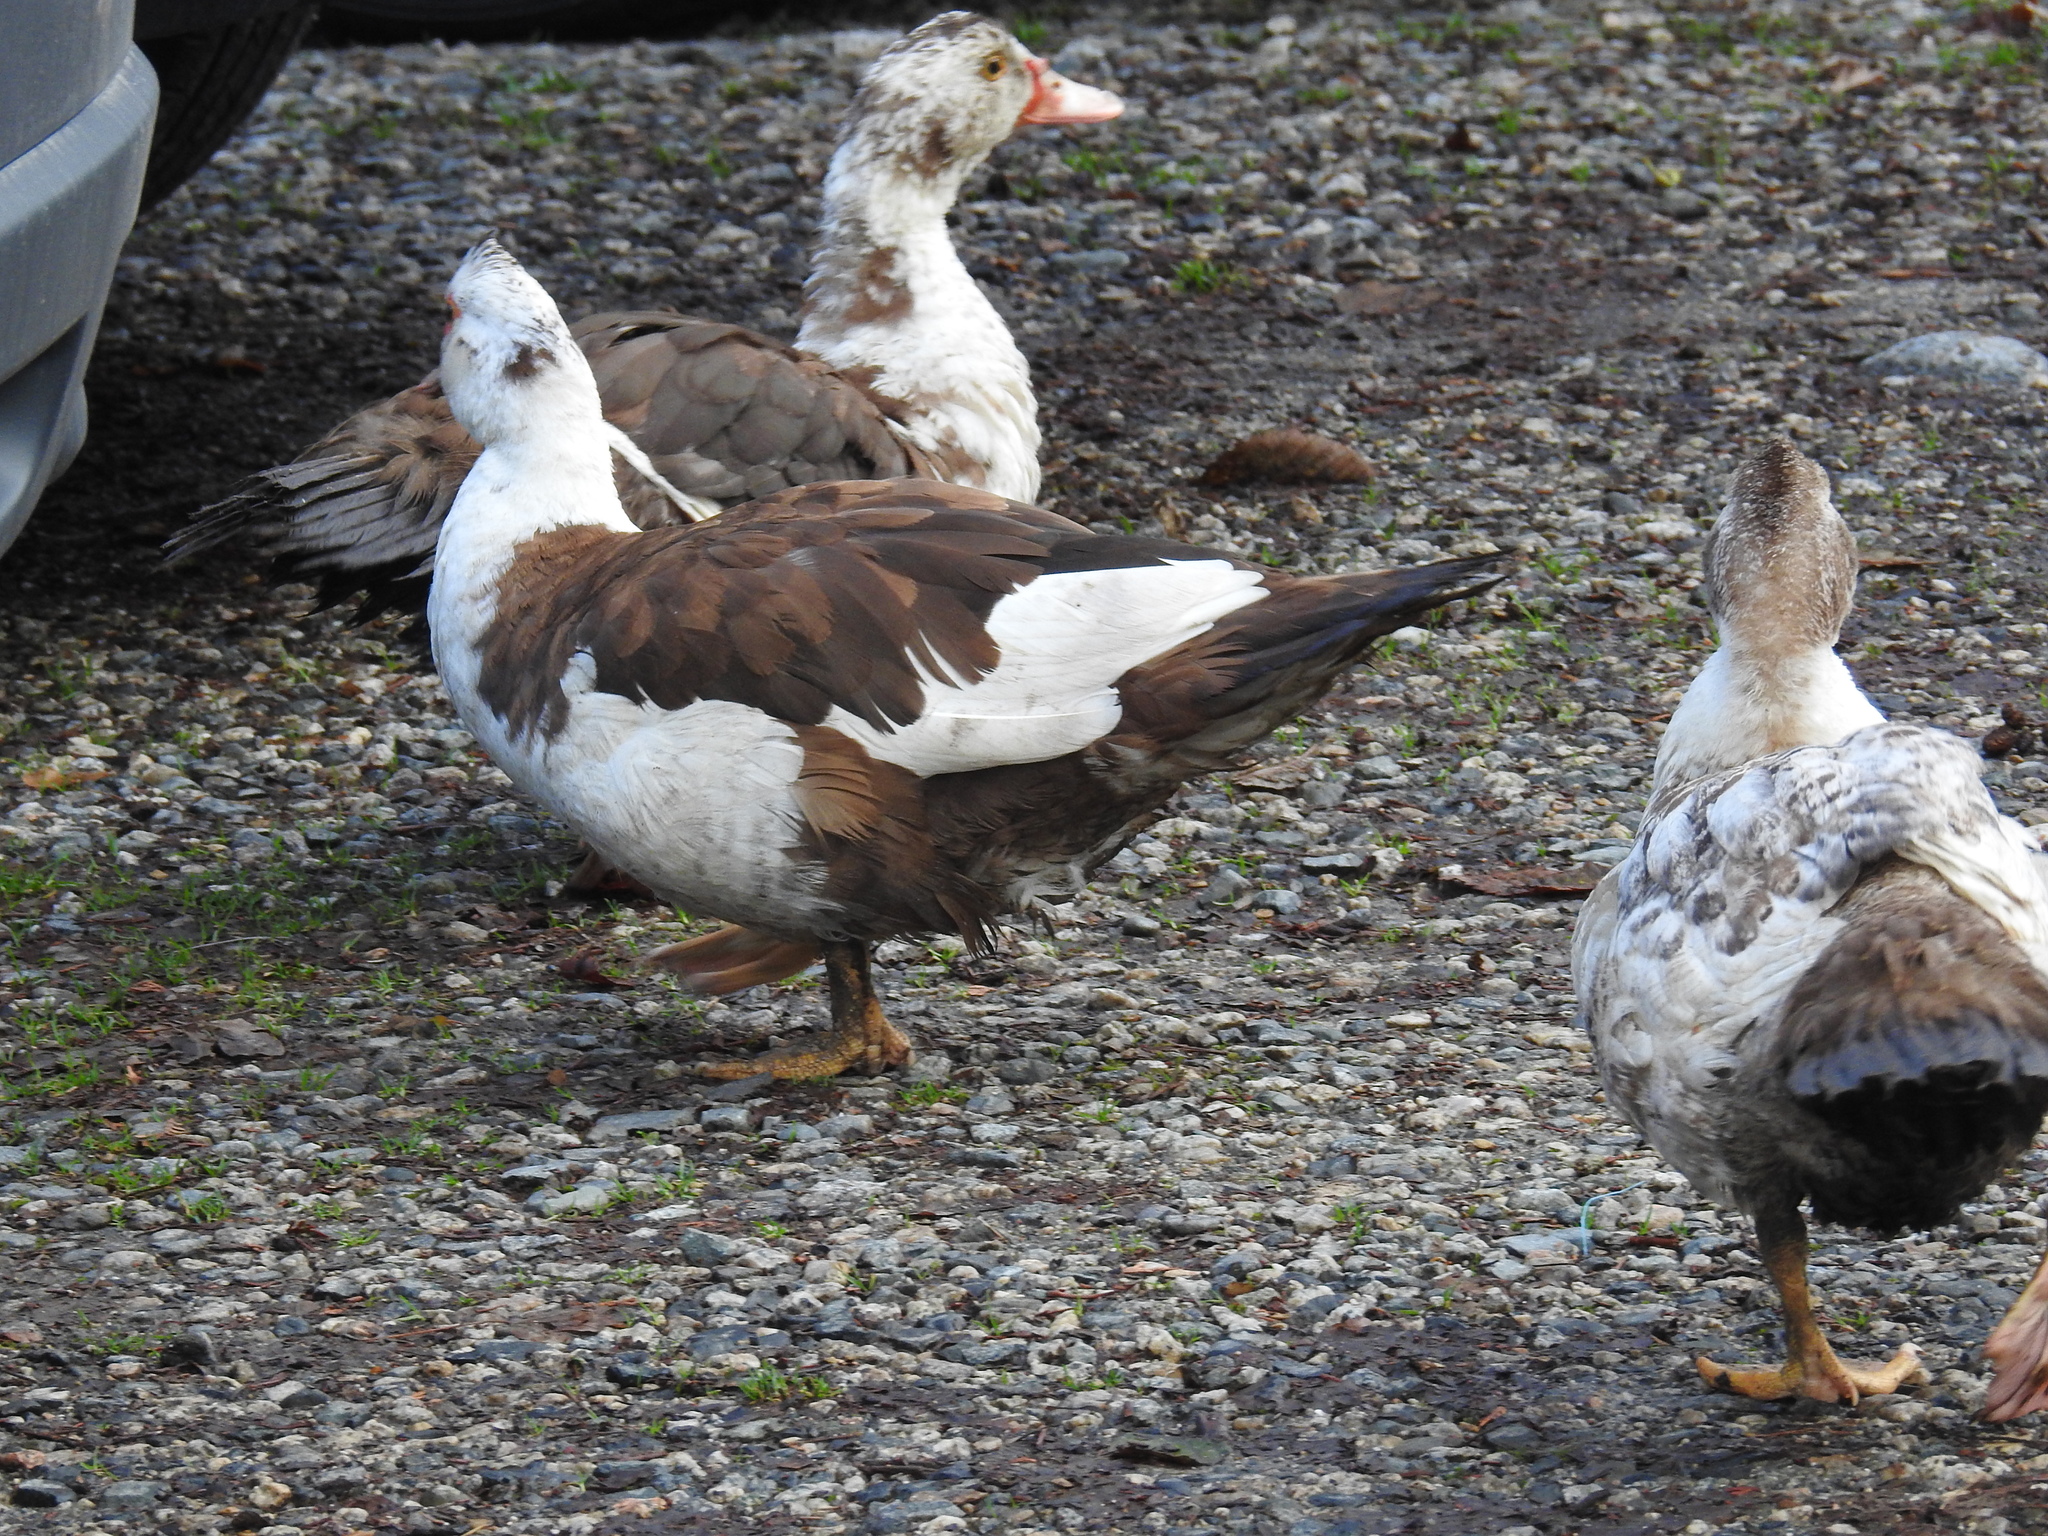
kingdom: Animalia
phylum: Chordata
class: Aves
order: Anseriformes
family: Anatidae
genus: Cairina
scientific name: Cairina moschata
